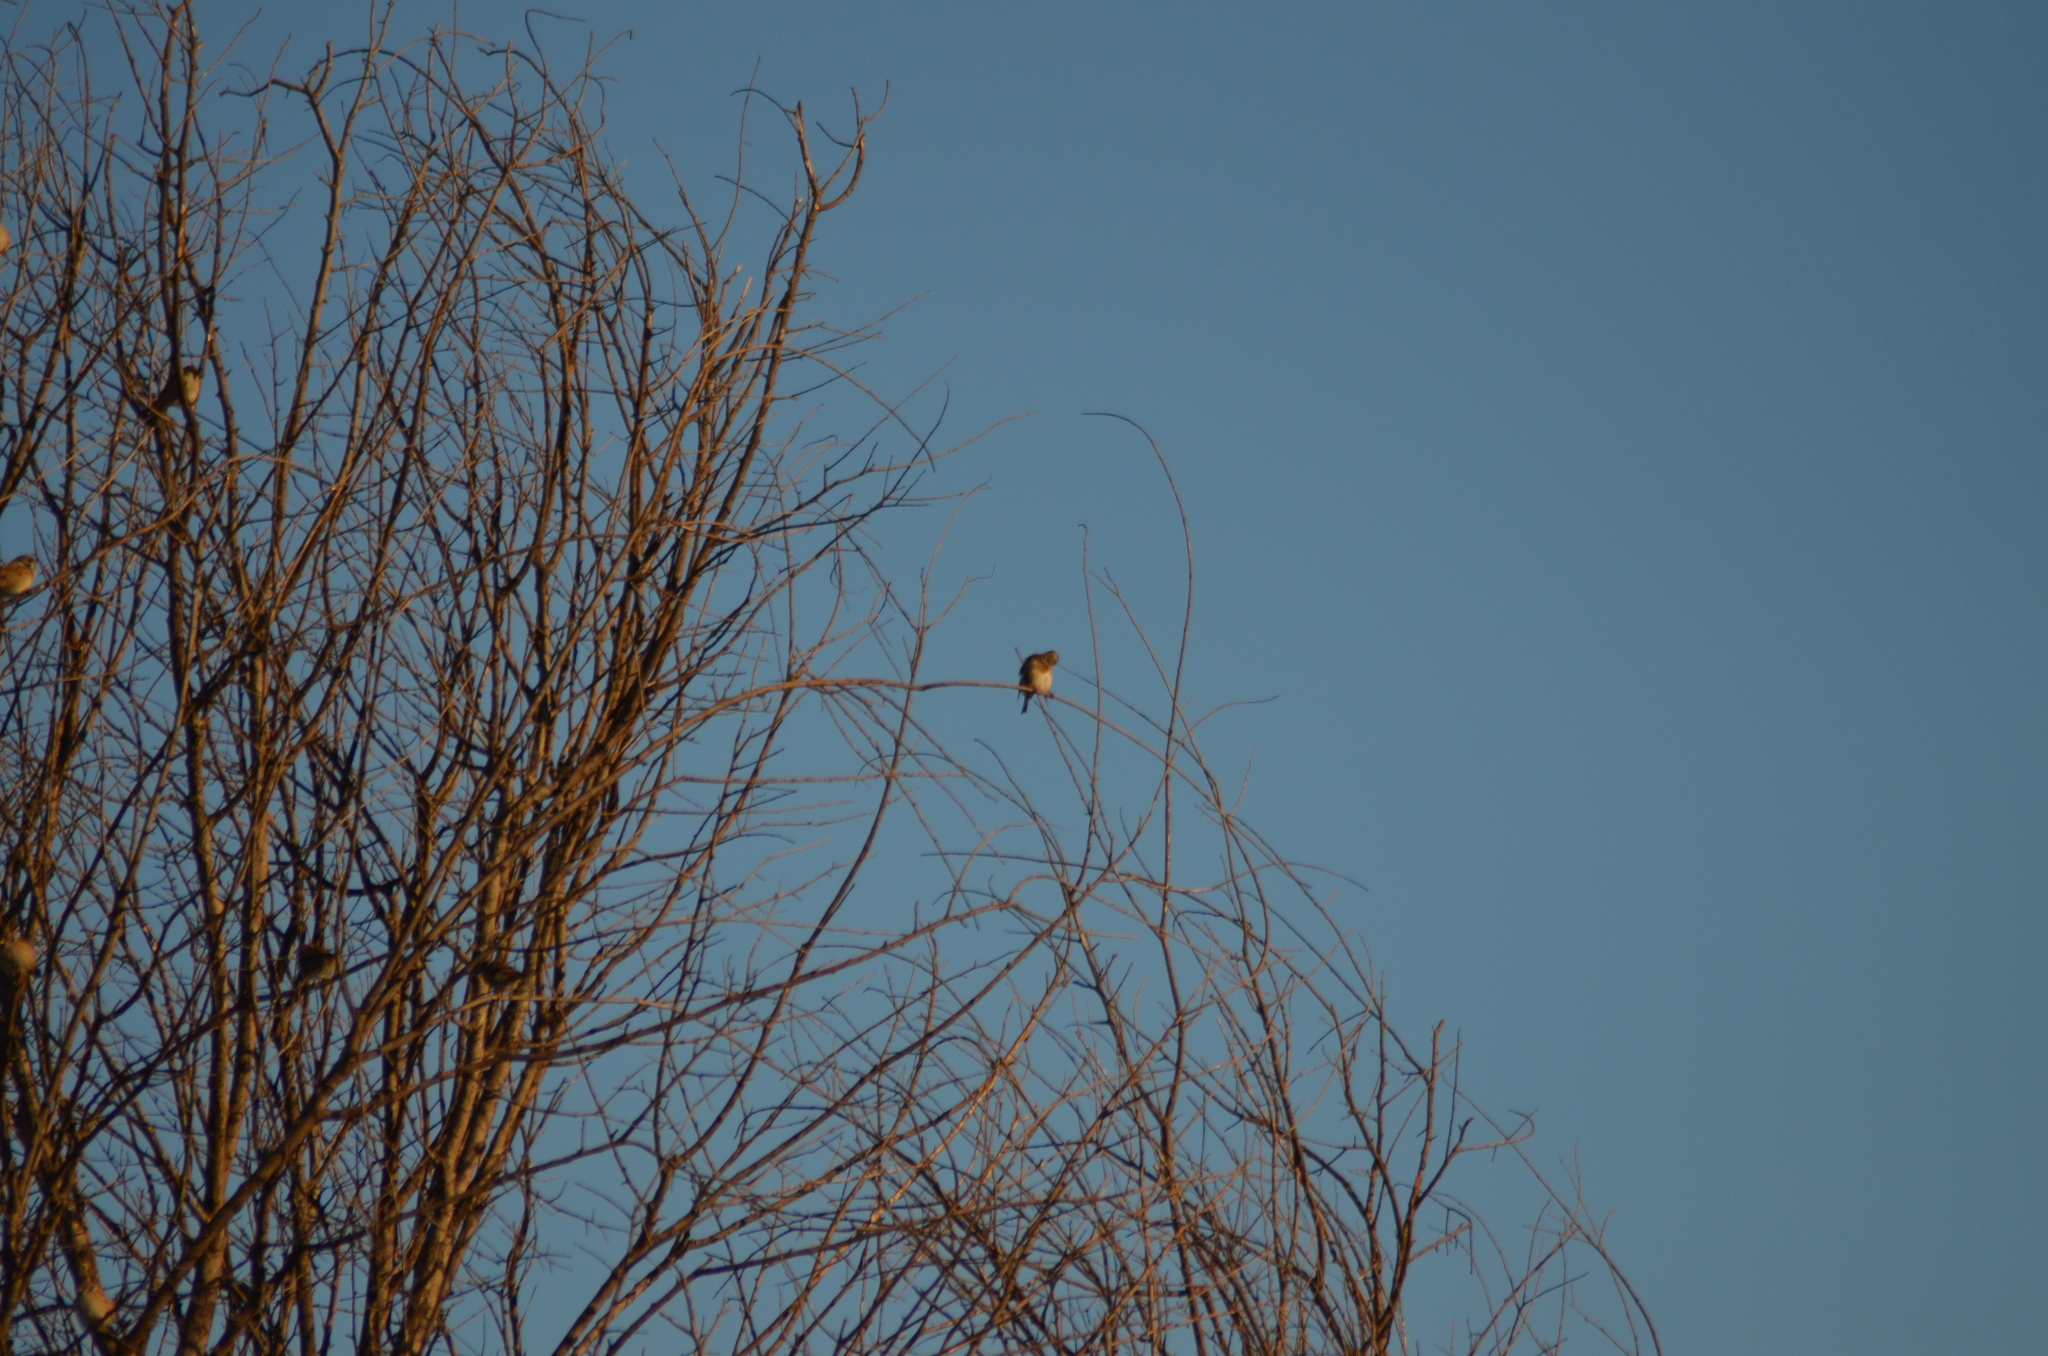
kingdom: Animalia
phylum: Chordata
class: Aves
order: Passeriformes
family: Fringillidae
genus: Carduelis
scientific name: Carduelis carduelis
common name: European goldfinch
